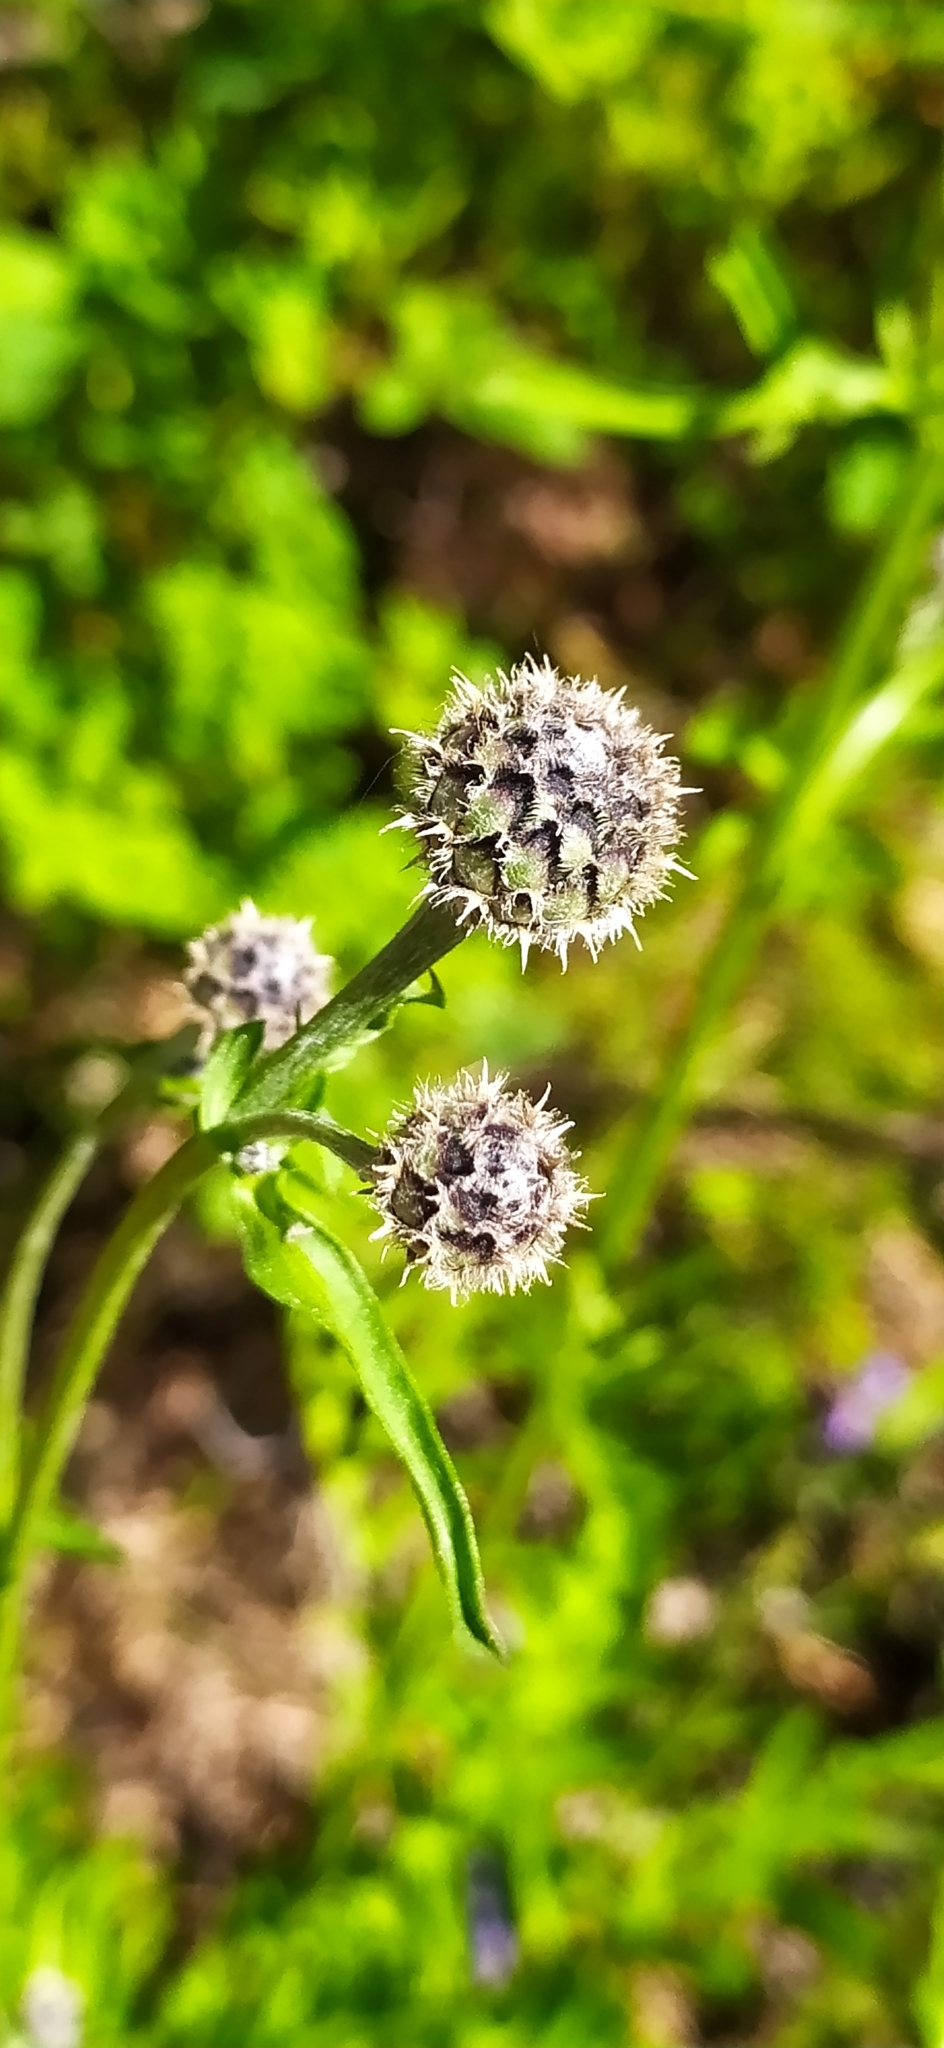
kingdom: Plantae
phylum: Tracheophyta
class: Magnoliopsida
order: Asterales
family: Asteraceae
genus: Centaurea
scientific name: Centaurea scabiosa
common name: Greater knapweed
